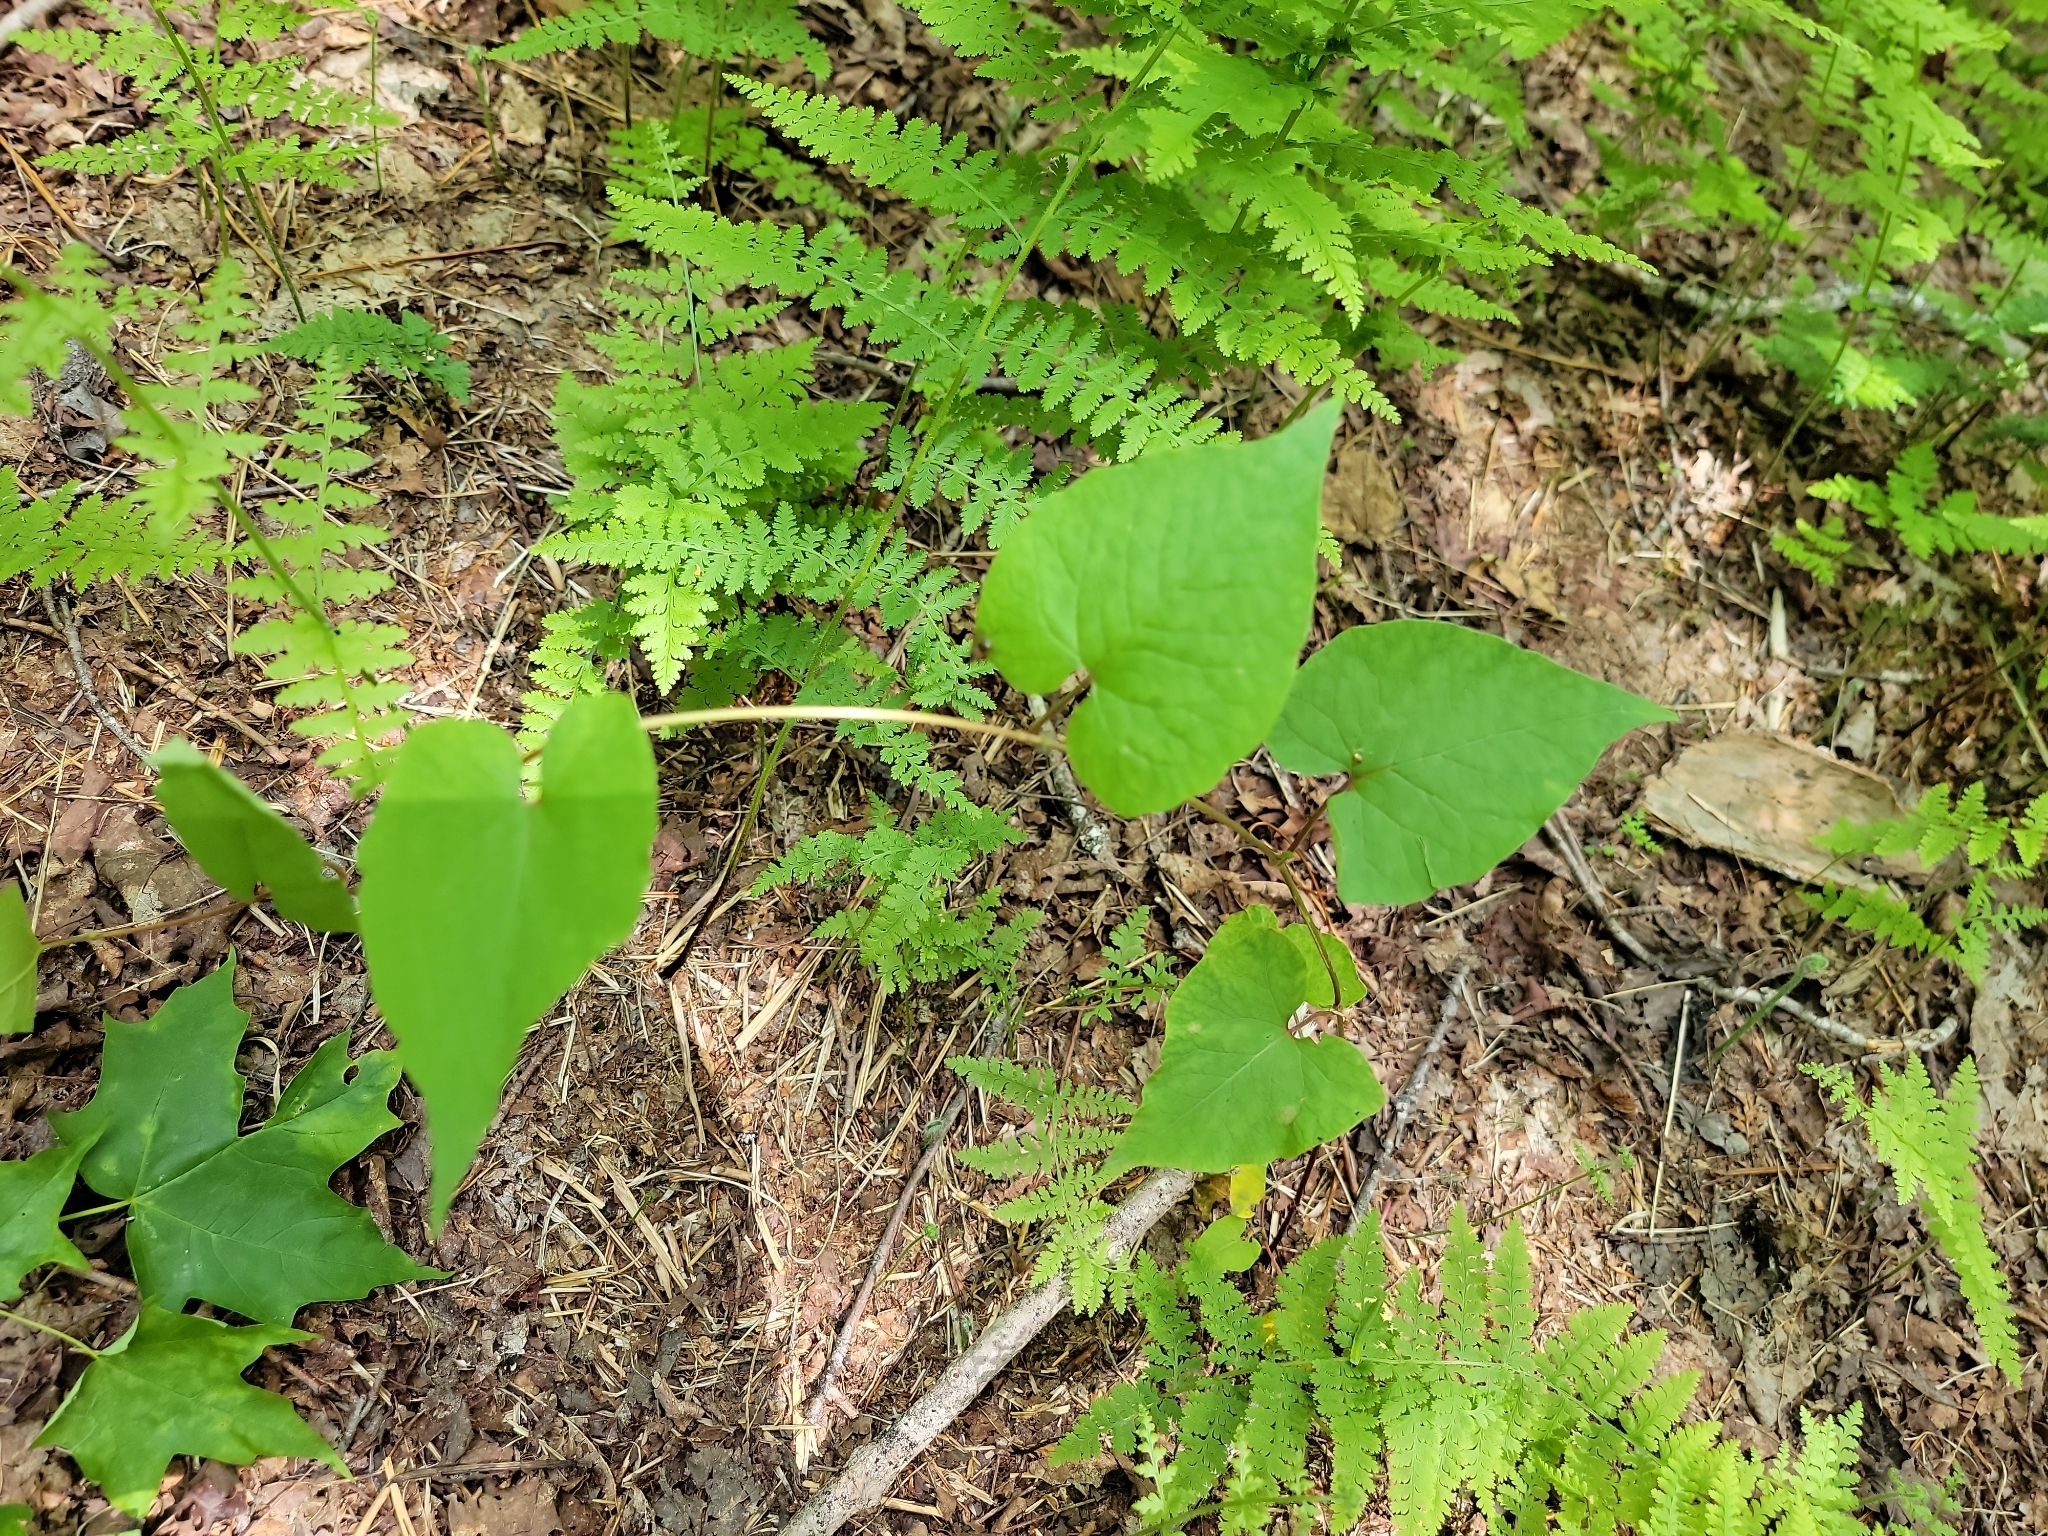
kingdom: Plantae
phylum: Tracheophyta
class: Magnoliopsida
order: Caryophyllales
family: Polygonaceae
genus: Parogonum
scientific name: Parogonum ciliinode
